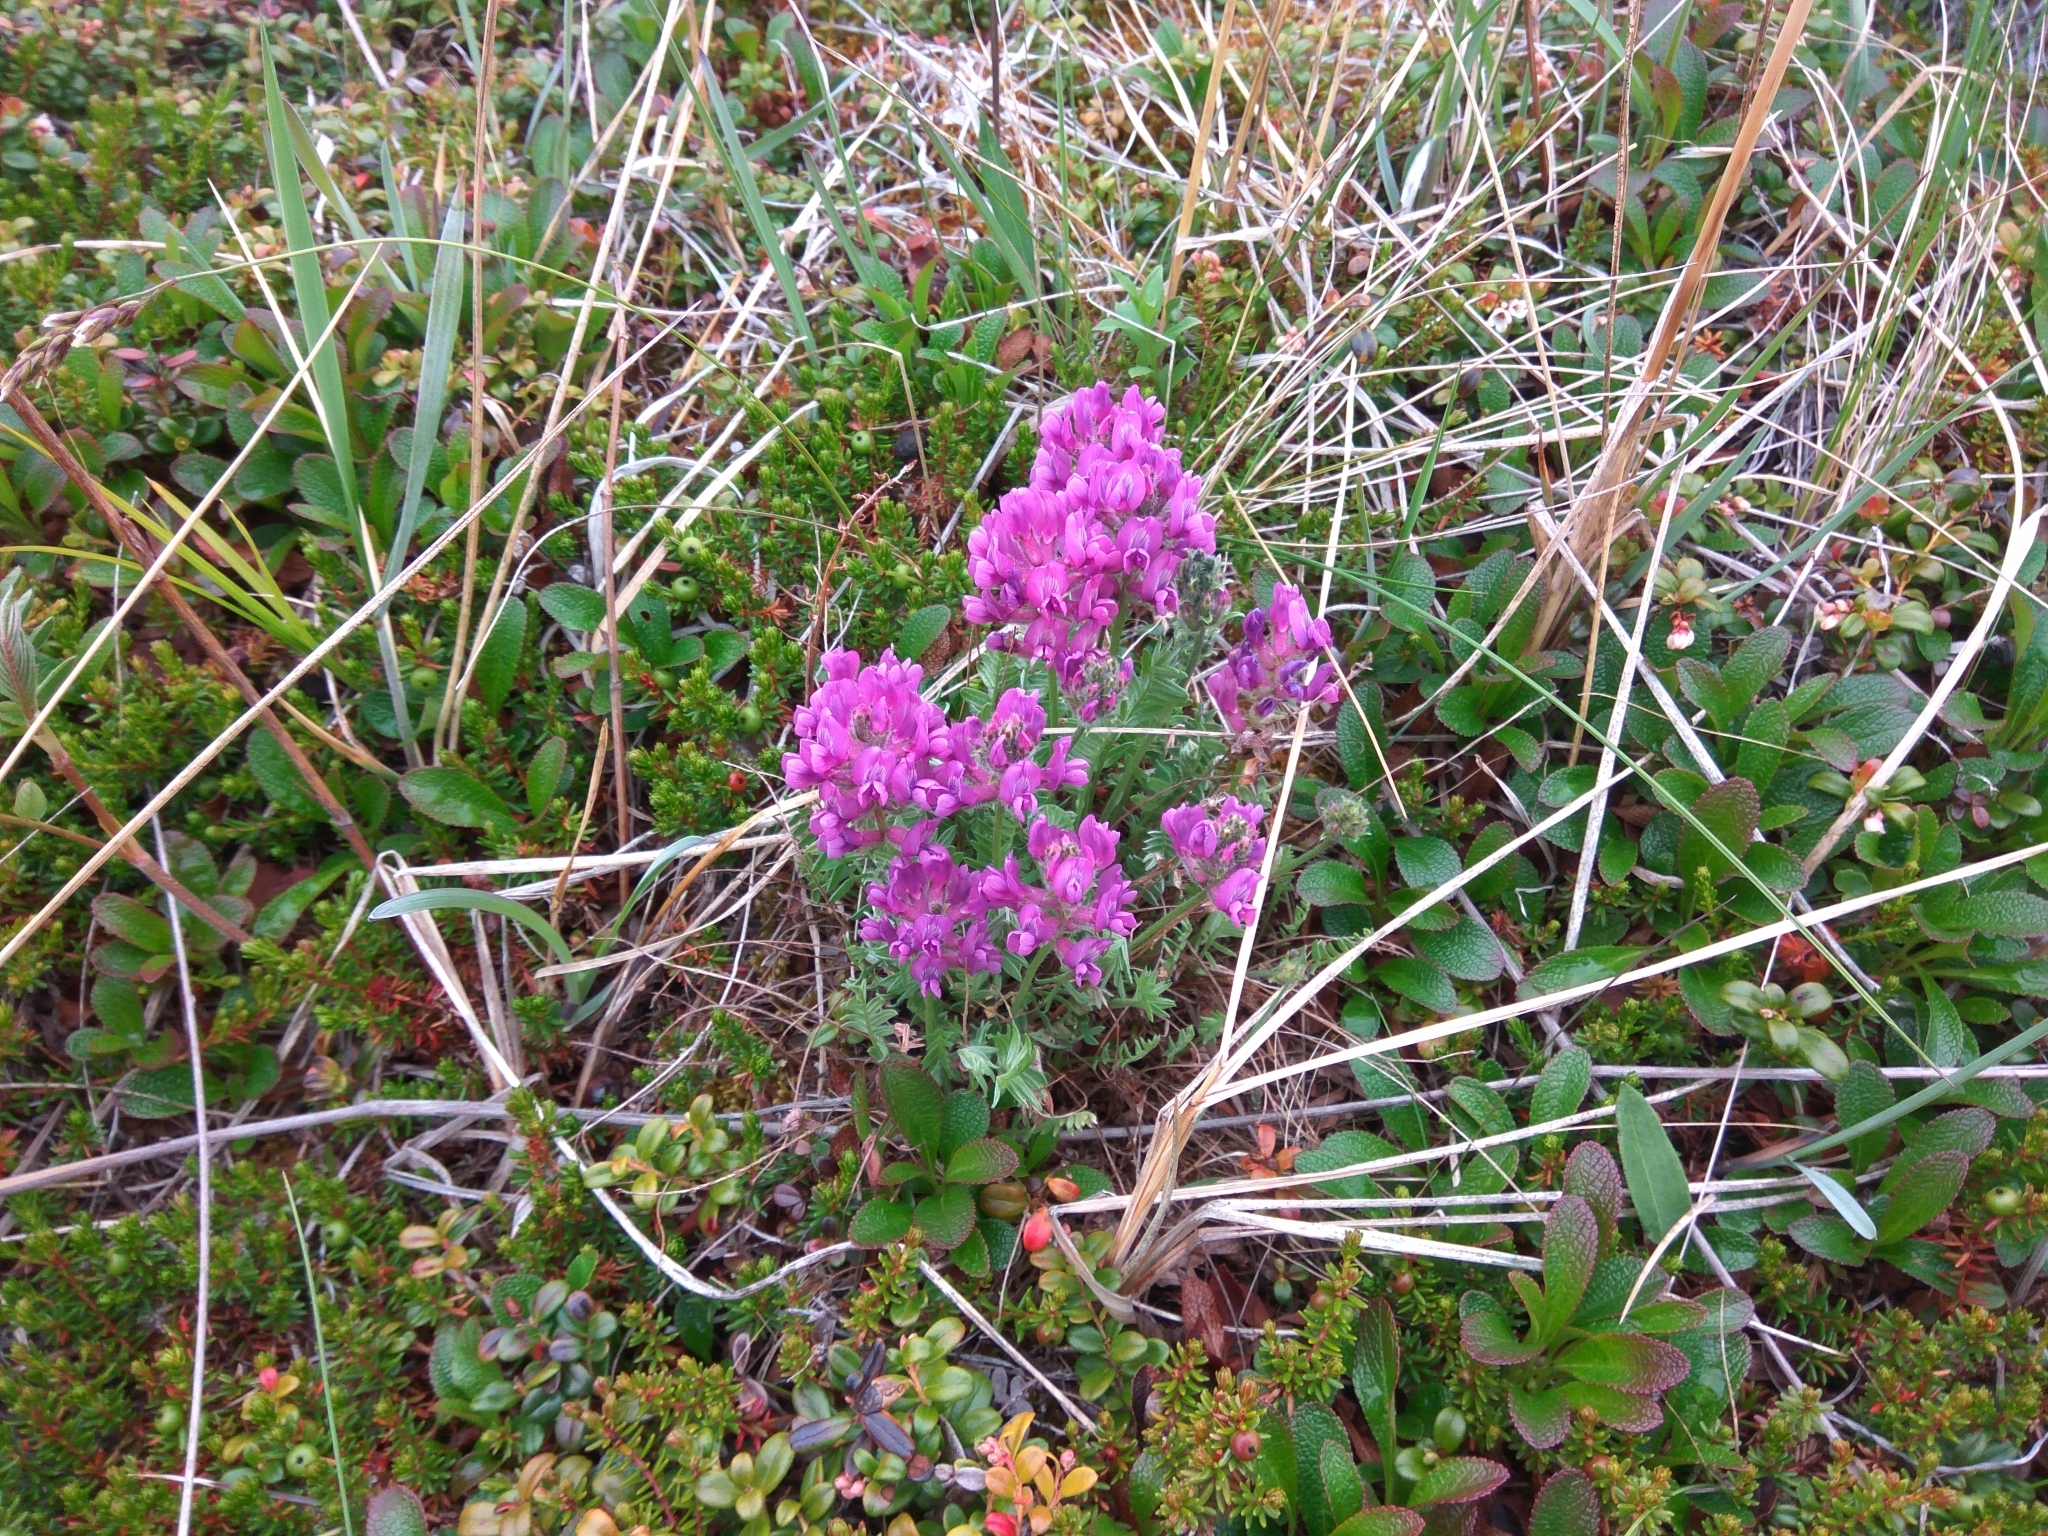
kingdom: Plantae
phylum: Tracheophyta
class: Magnoliopsida
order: Fabales
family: Fabaceae
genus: Oxytropis
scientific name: Oxytropis adamsiana
